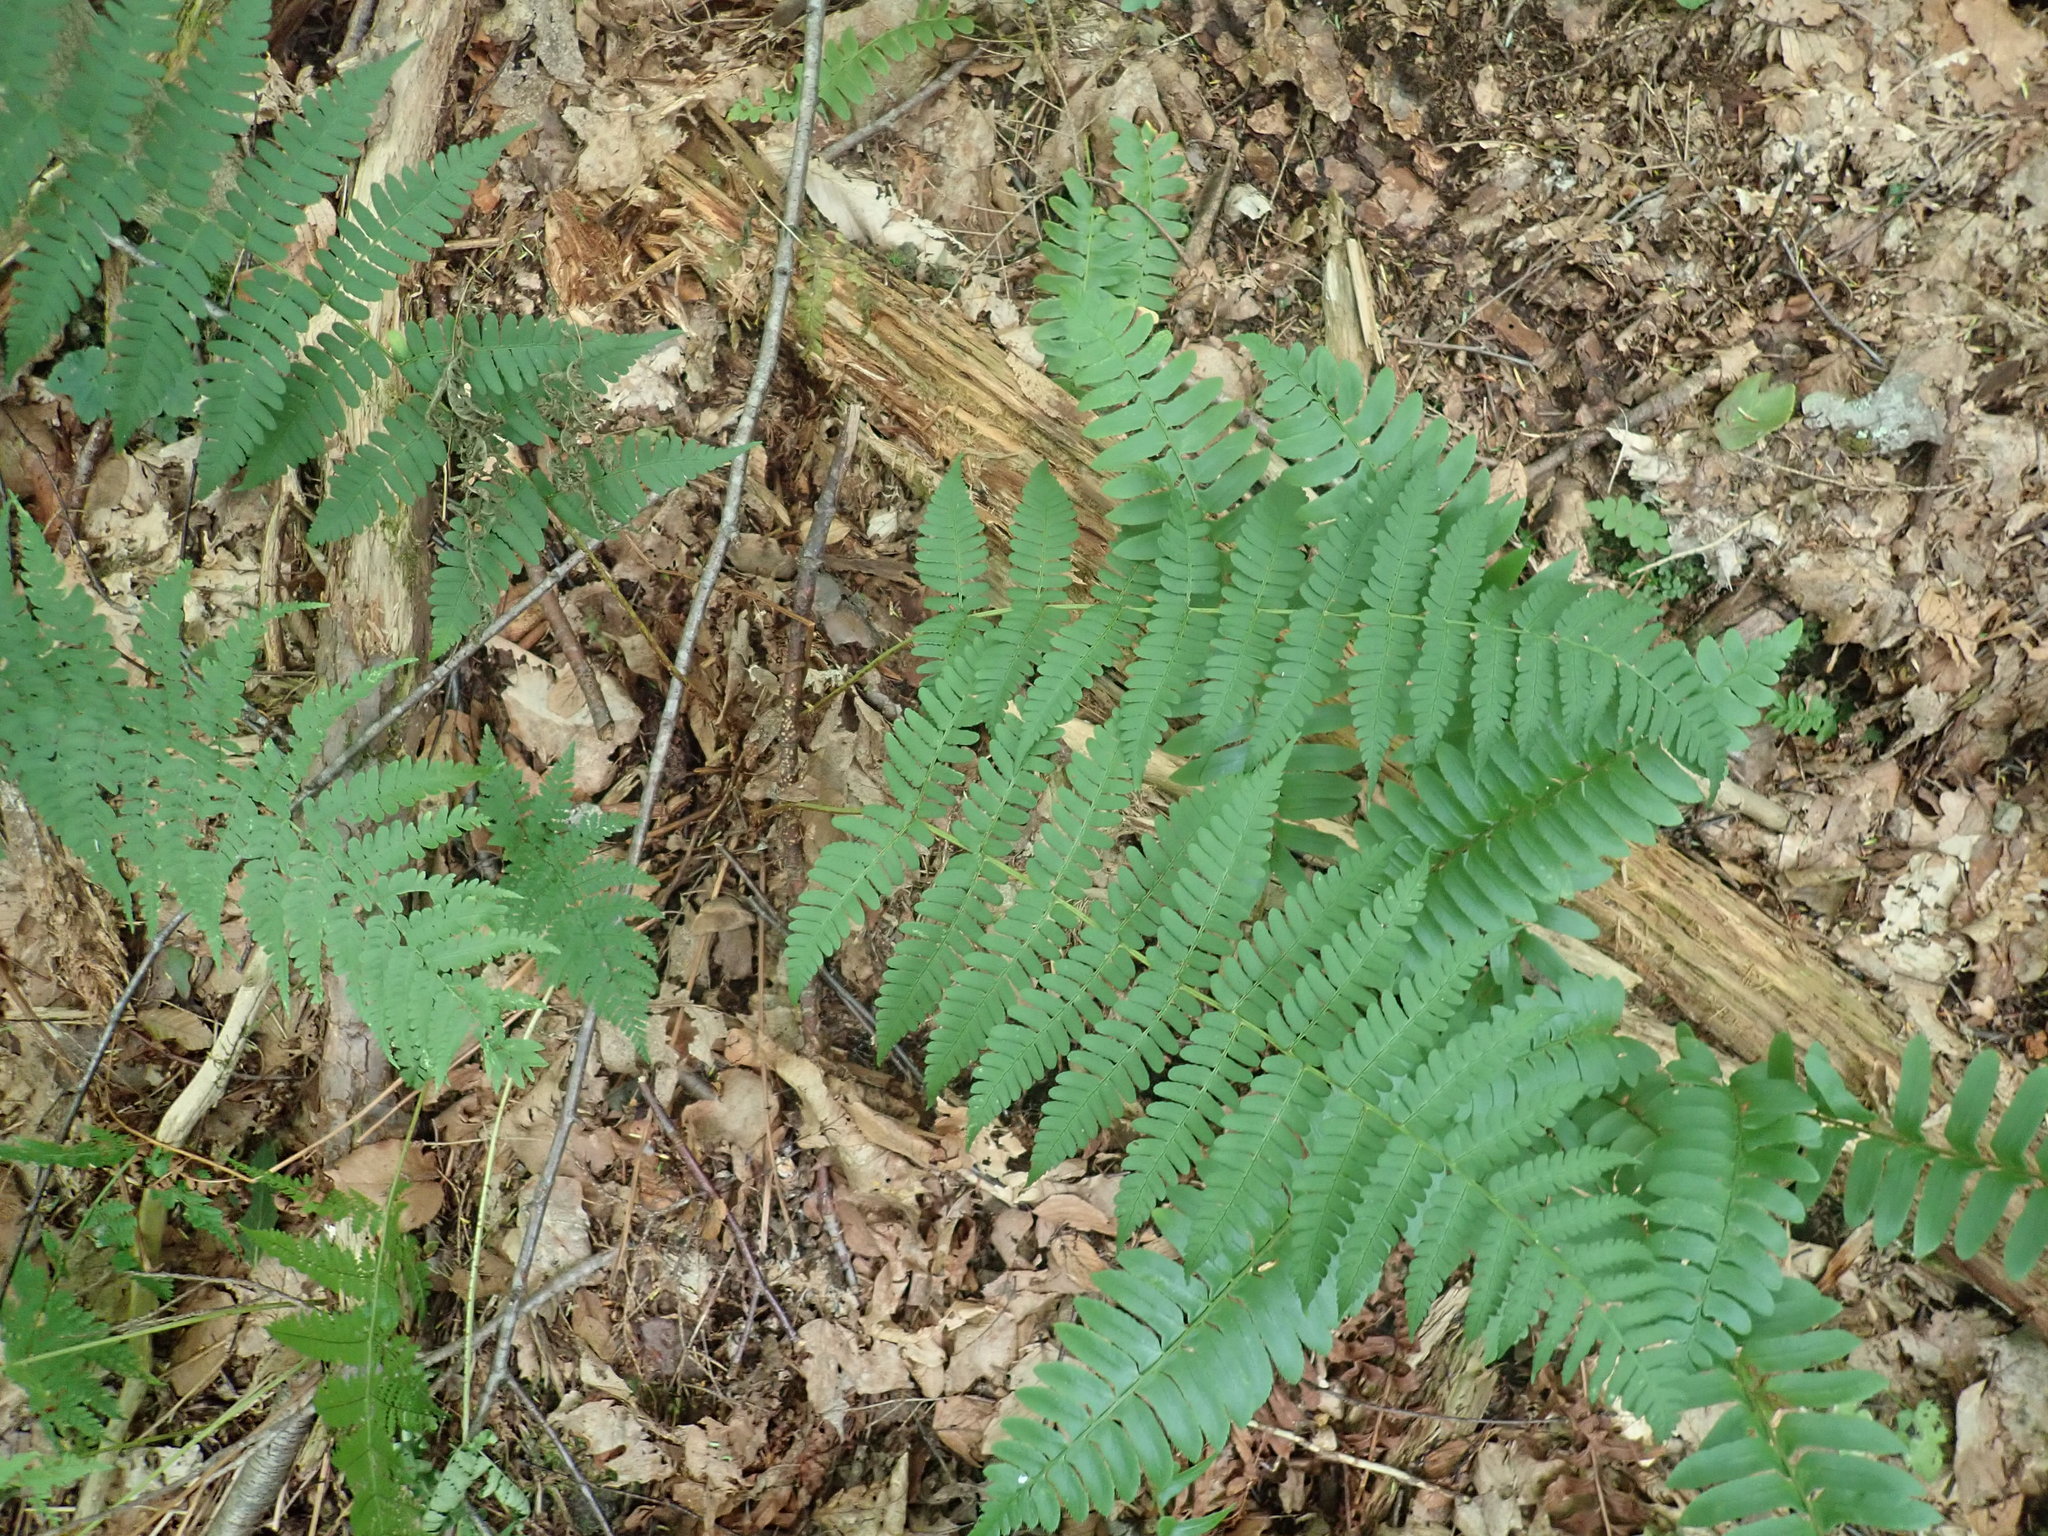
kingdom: Plantae
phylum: Tracheophyta
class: Polypodiopsida
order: Polypodiales
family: Dryopteridaceae
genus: Dryopteris
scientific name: Dryopteris marginalis
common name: Marginal wood fern
